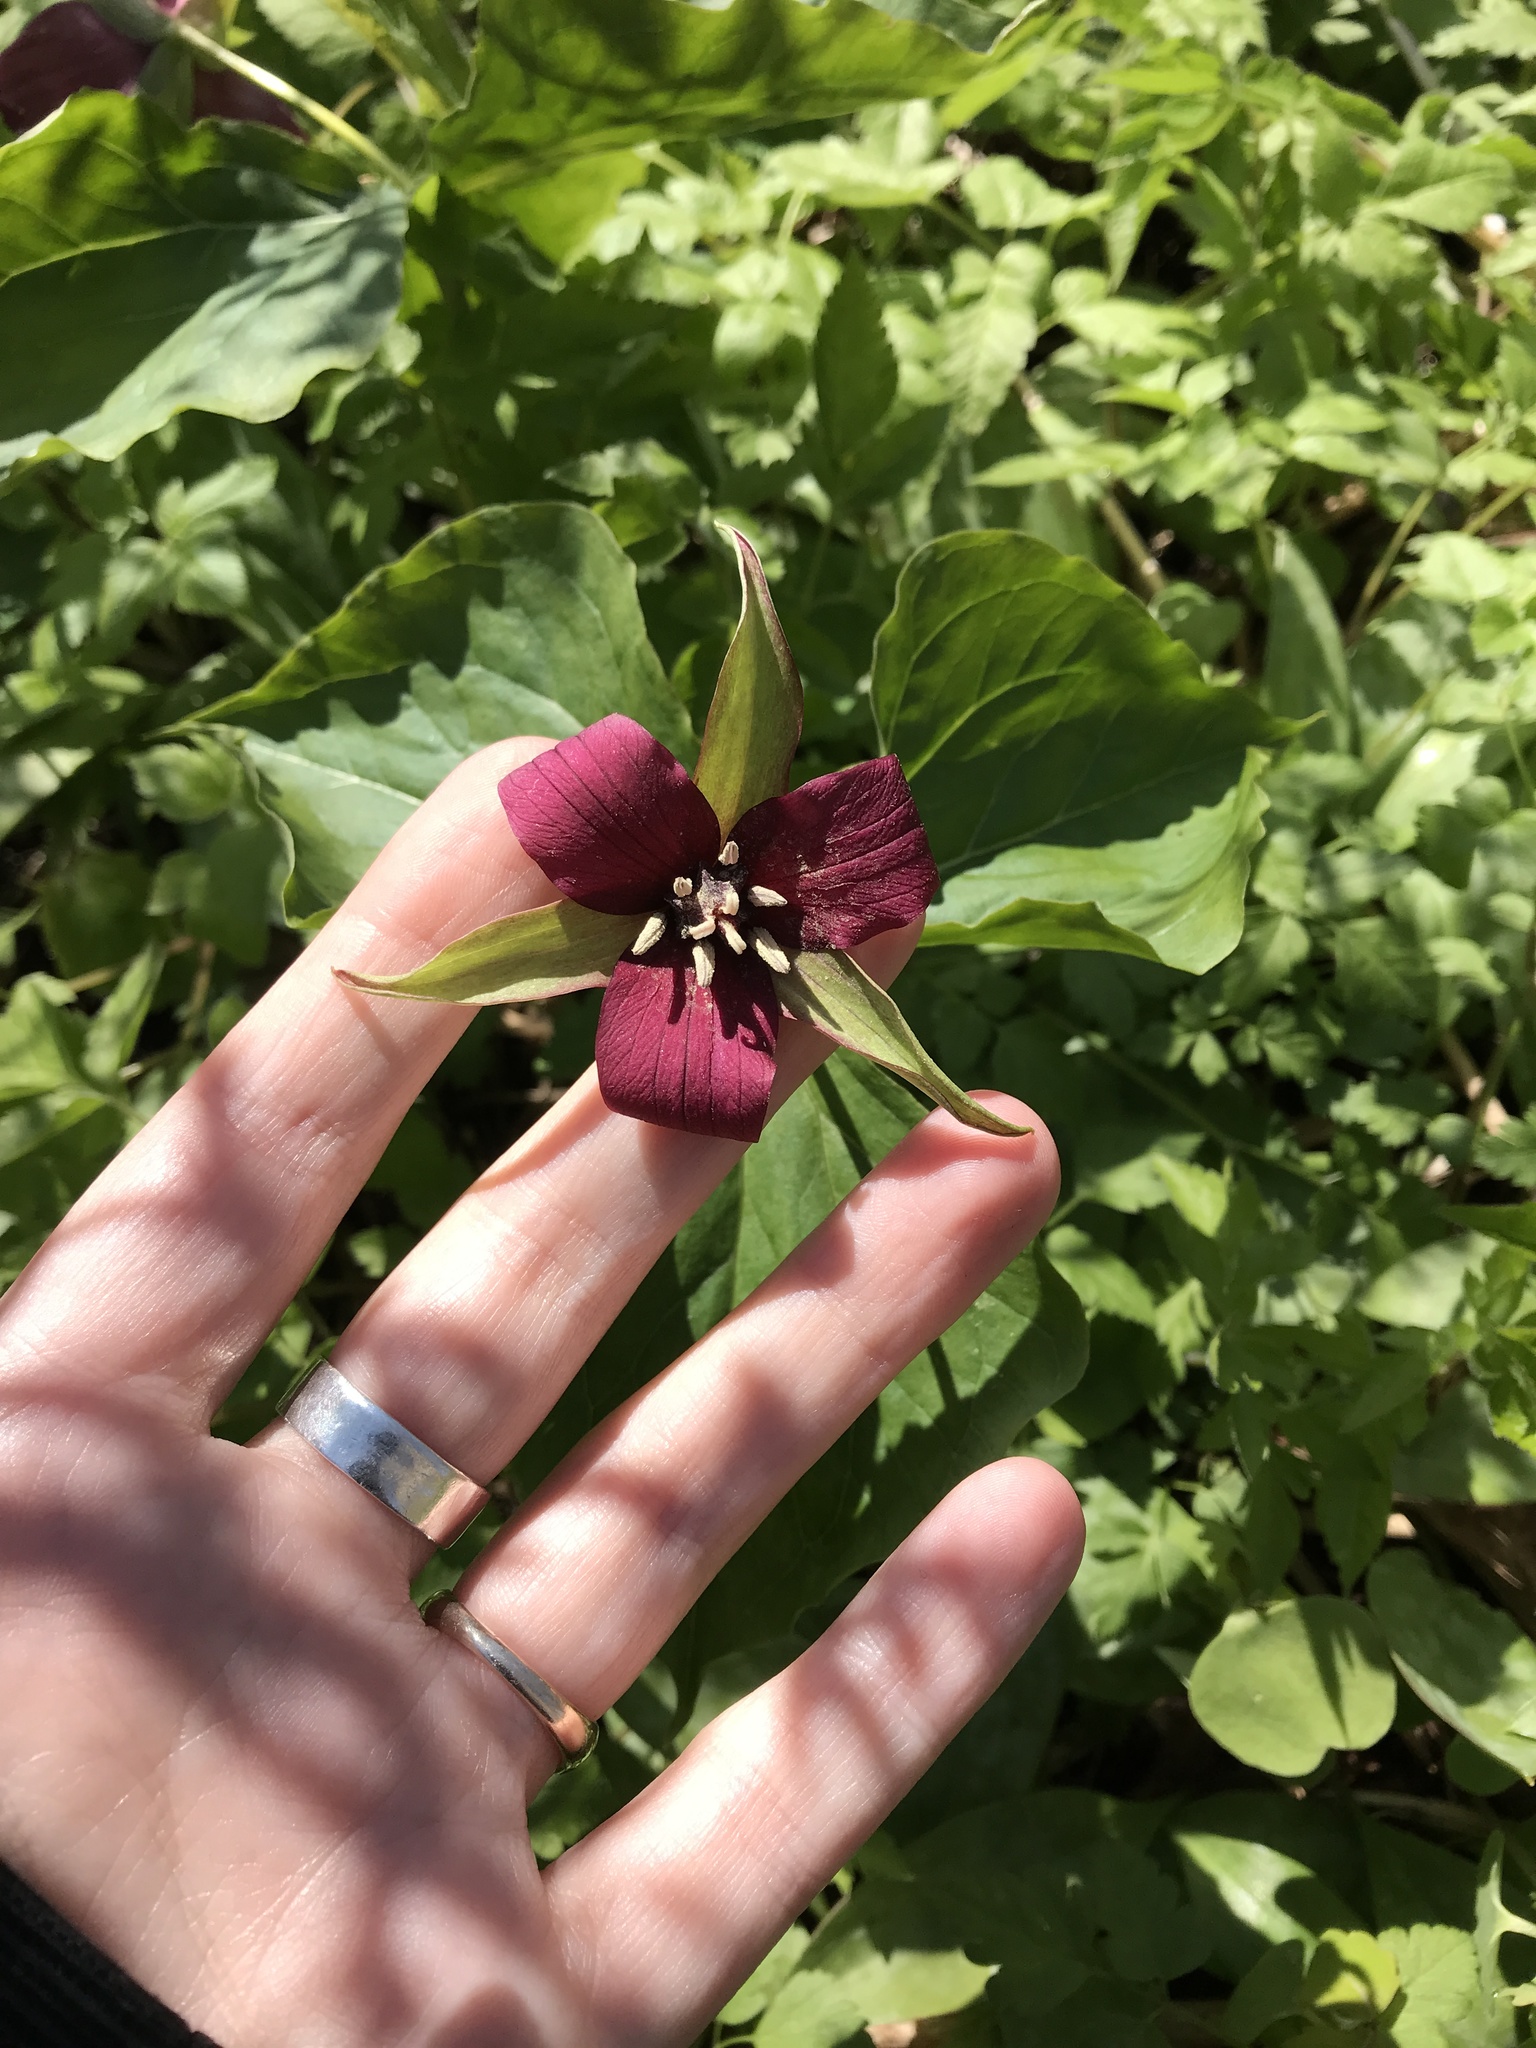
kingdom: Plantae
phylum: Tracheophyta
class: Liliopsida
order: Liliales
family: Melanthiaceae
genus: Trillium
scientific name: Trillium erectum
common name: Purple trillium
